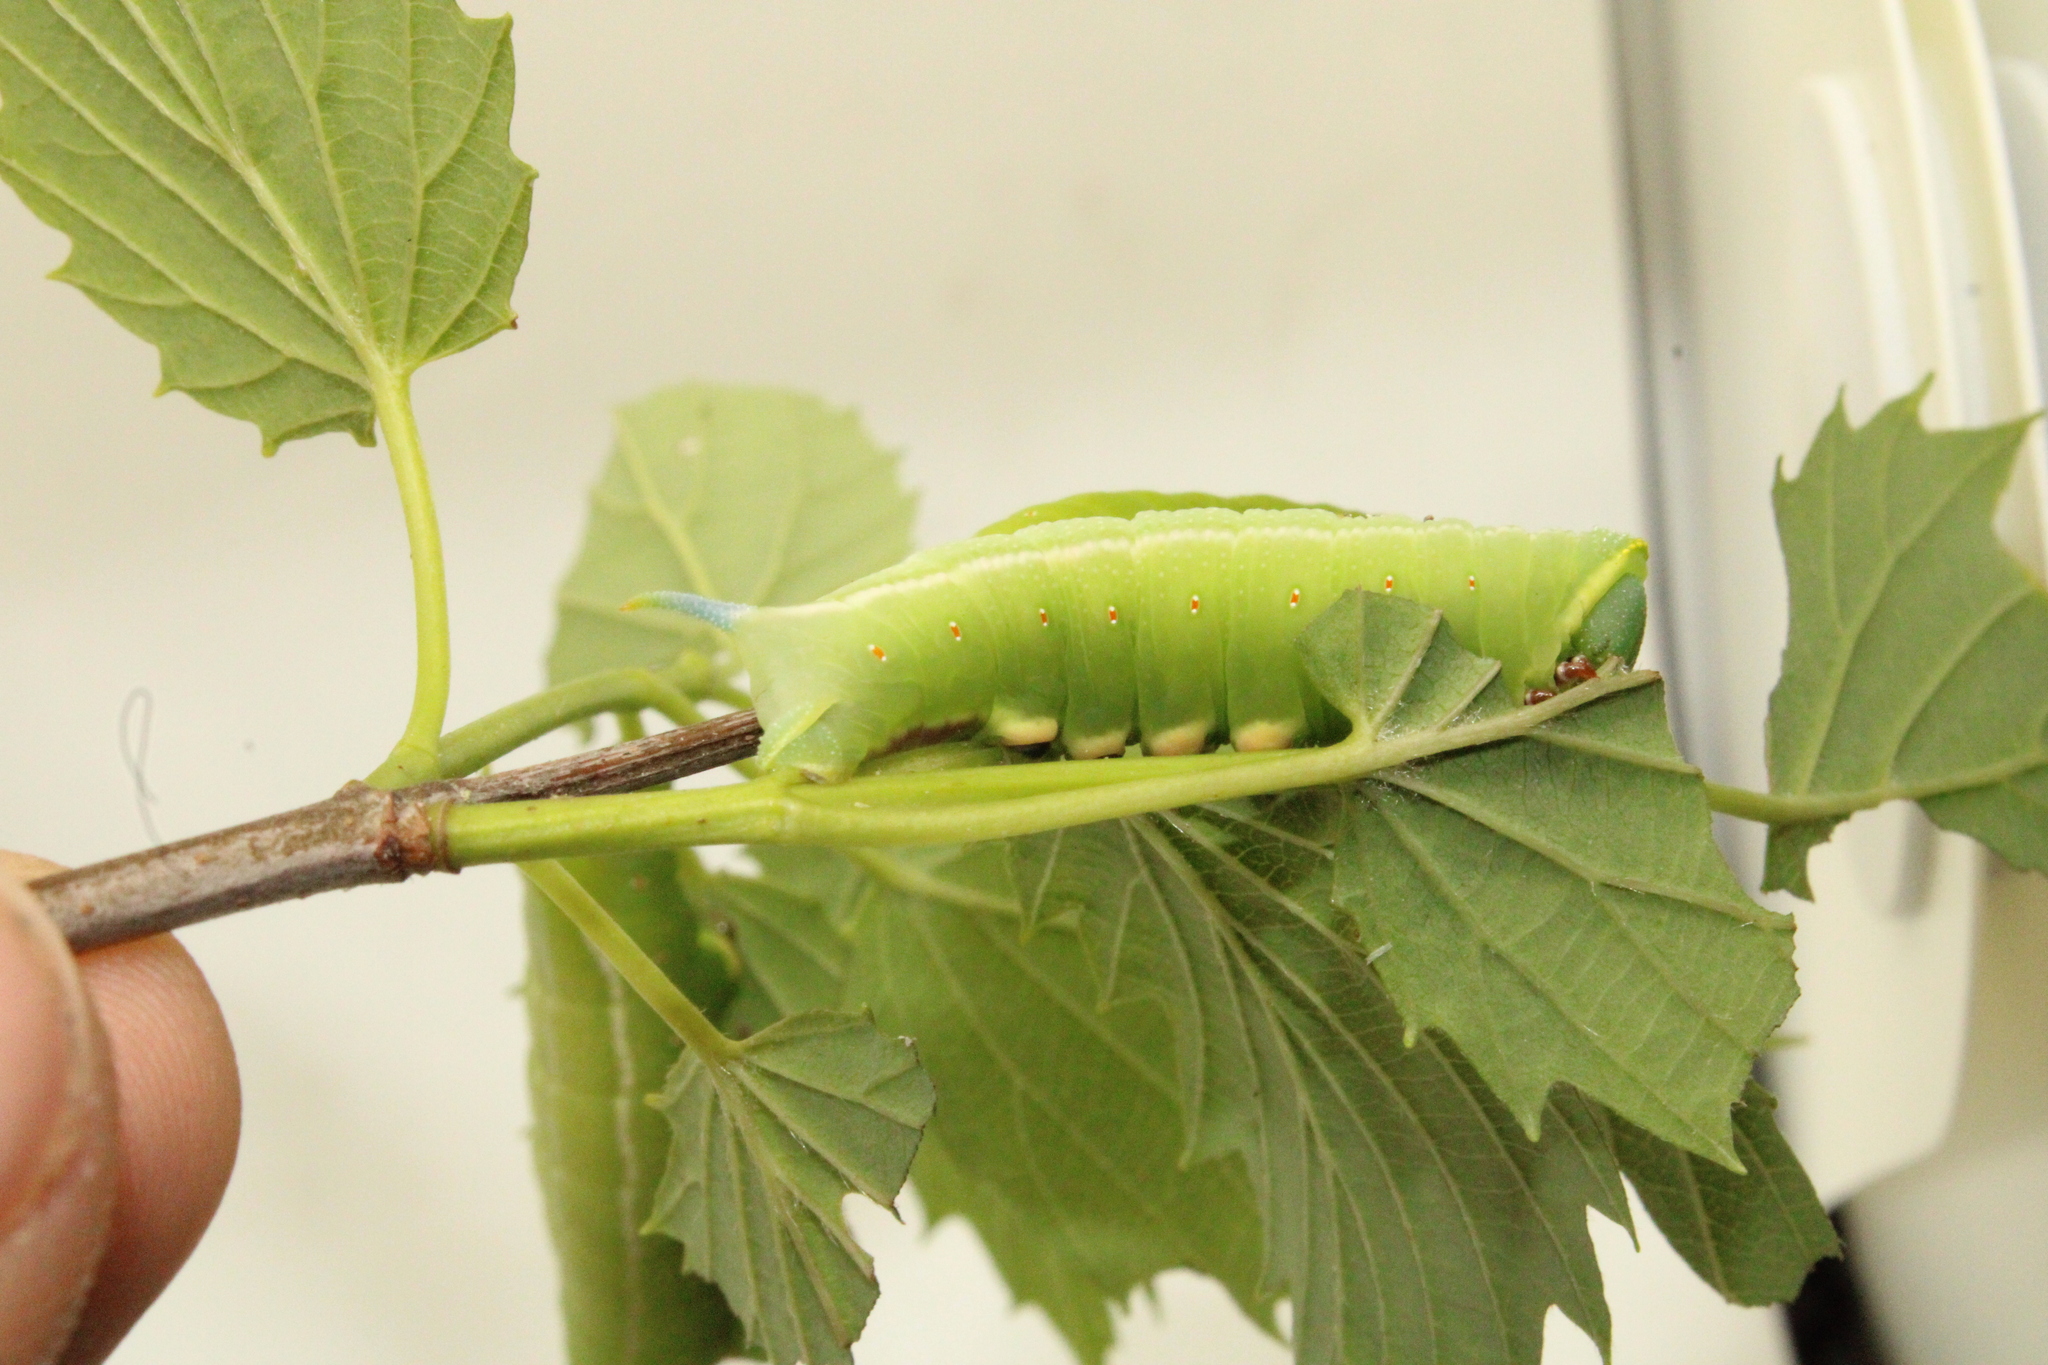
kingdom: Animalia
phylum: Arthropoda
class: Insecta
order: Lepidoptera
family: Sphingidae
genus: Hemaris
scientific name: Hemaris thysbe
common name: Common clear-wing
